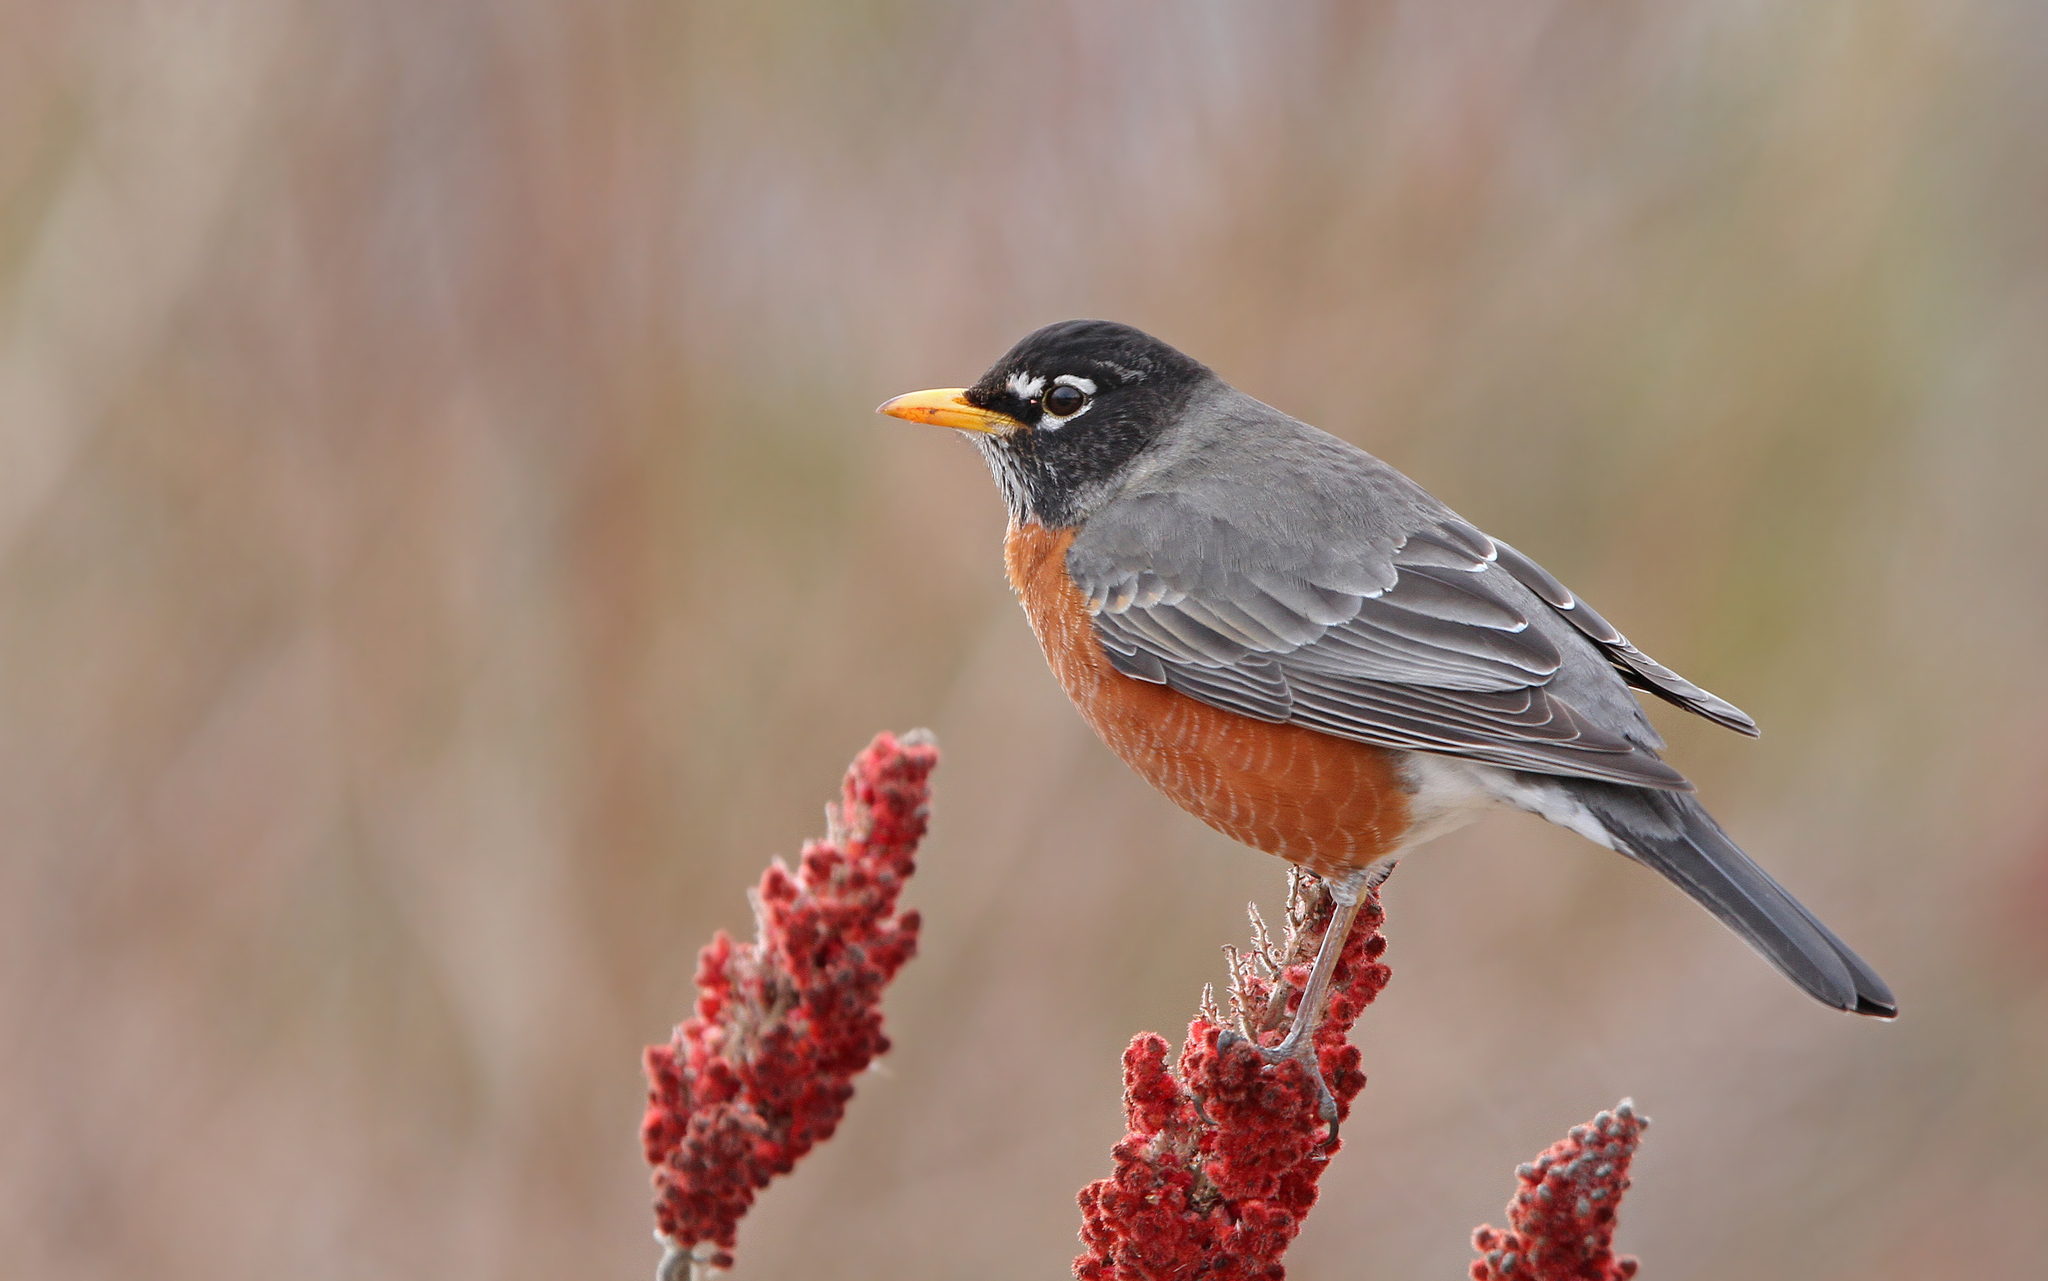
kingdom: Animalia
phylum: Chordata
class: Aves
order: Passeriformes
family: Turdidae
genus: Turdus
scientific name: Turdus migratorius
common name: American robin
